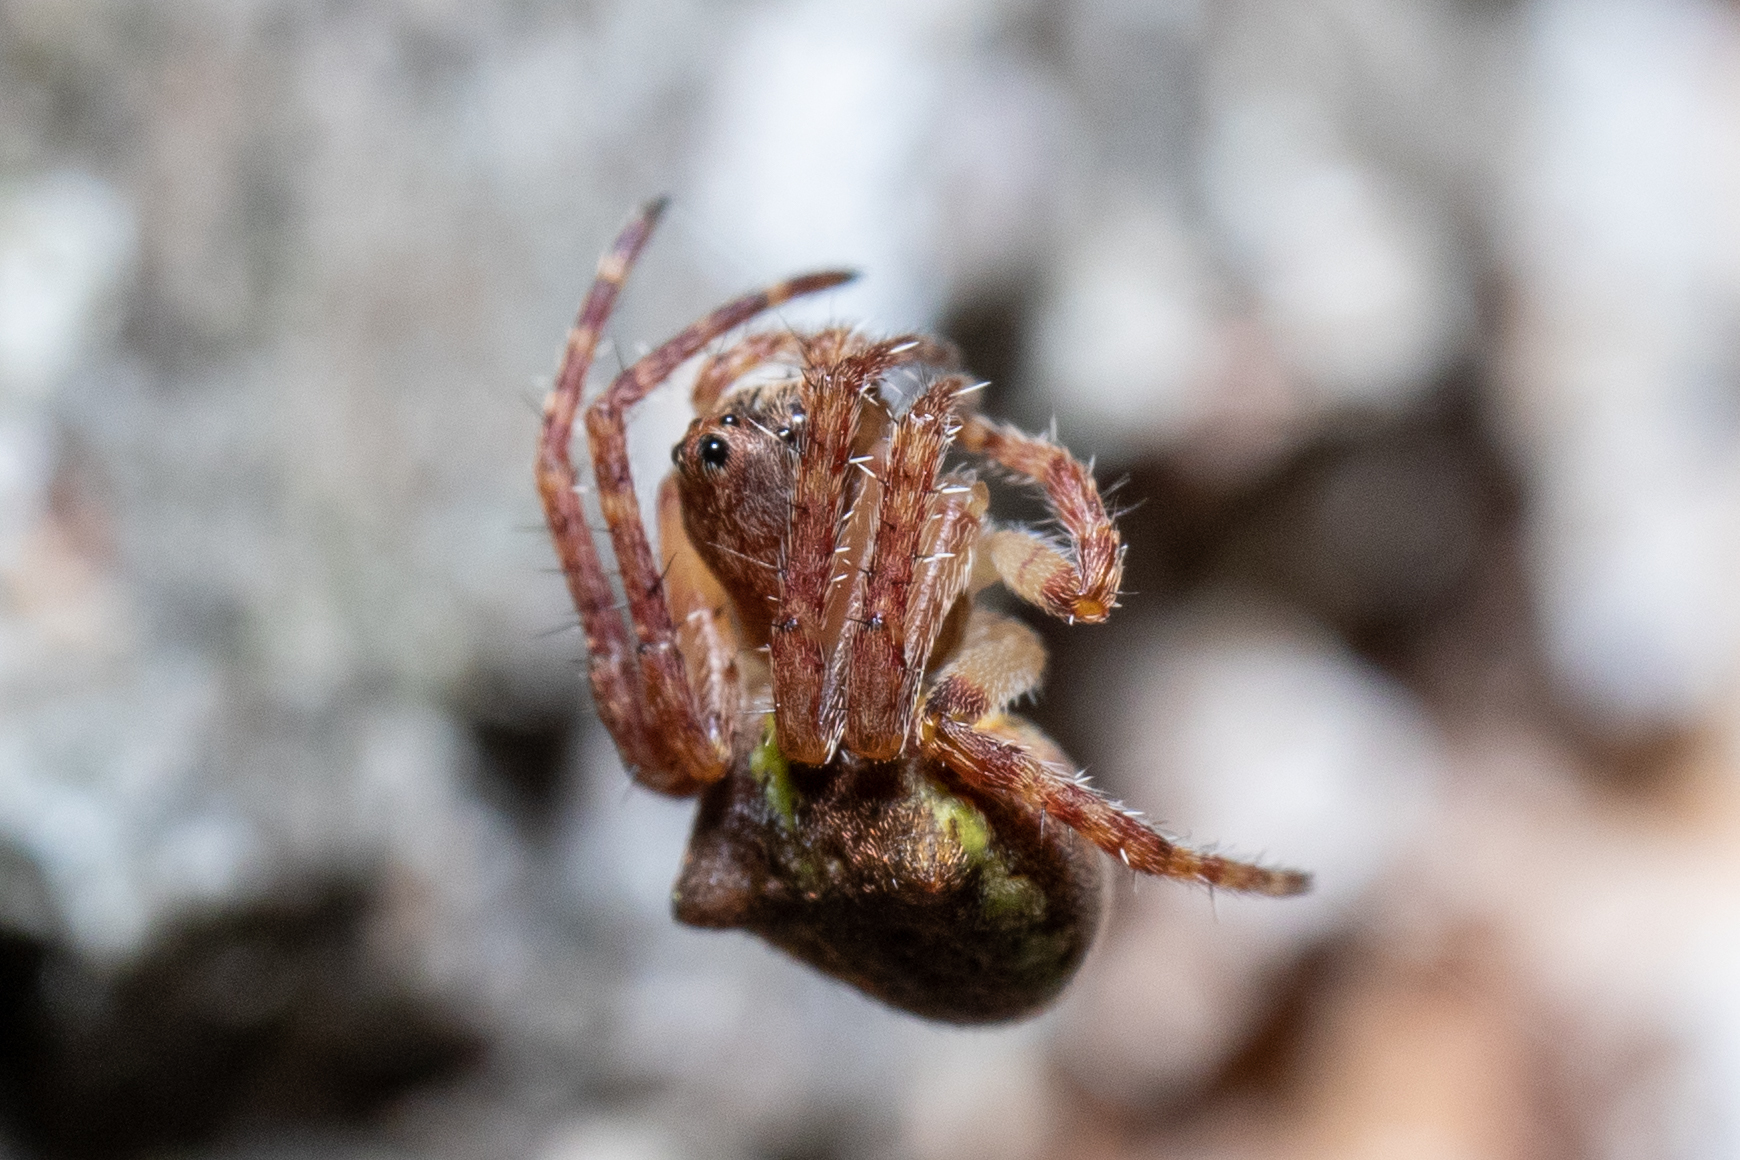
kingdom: Animalia
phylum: Arthropoda
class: Arachnida
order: Araneae
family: Araneidae
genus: Gibbaranea
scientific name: Gibbaranea gibbosa
